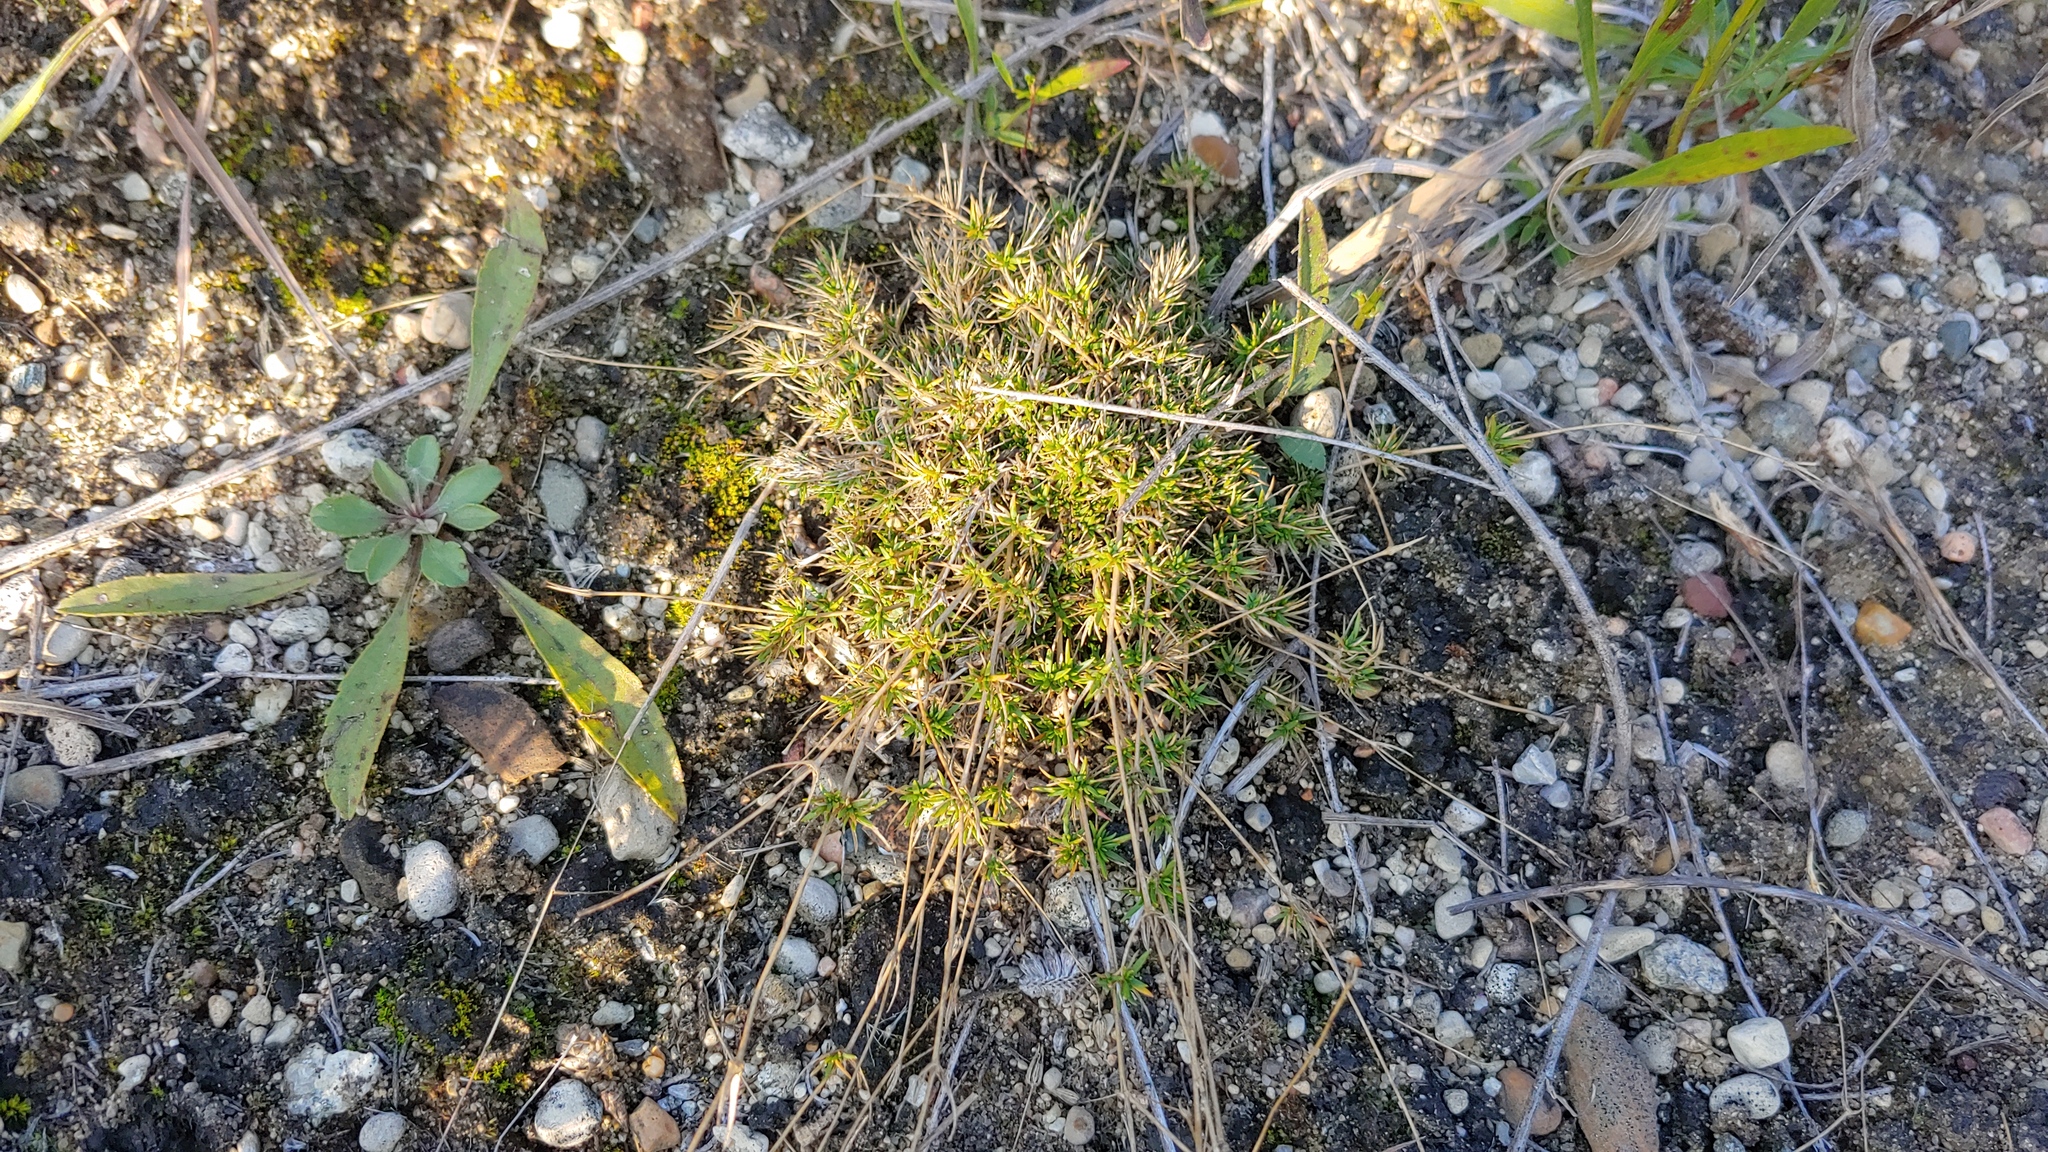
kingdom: Plantae
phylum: Tracheophyta
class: Magnoliopsida
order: Caryophyllales
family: Caryophyllaceae
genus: Sabulina
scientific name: Sabulina michauxii
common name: Michaux's stitchwort
